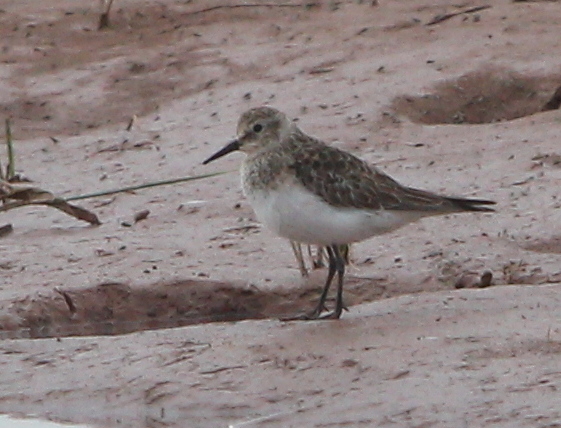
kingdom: Animalia
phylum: Chordata
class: Aves
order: Charadriiformes
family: Scolopacidae
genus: Calidris
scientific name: Calidris bairdii
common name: Baird's sandpiper
